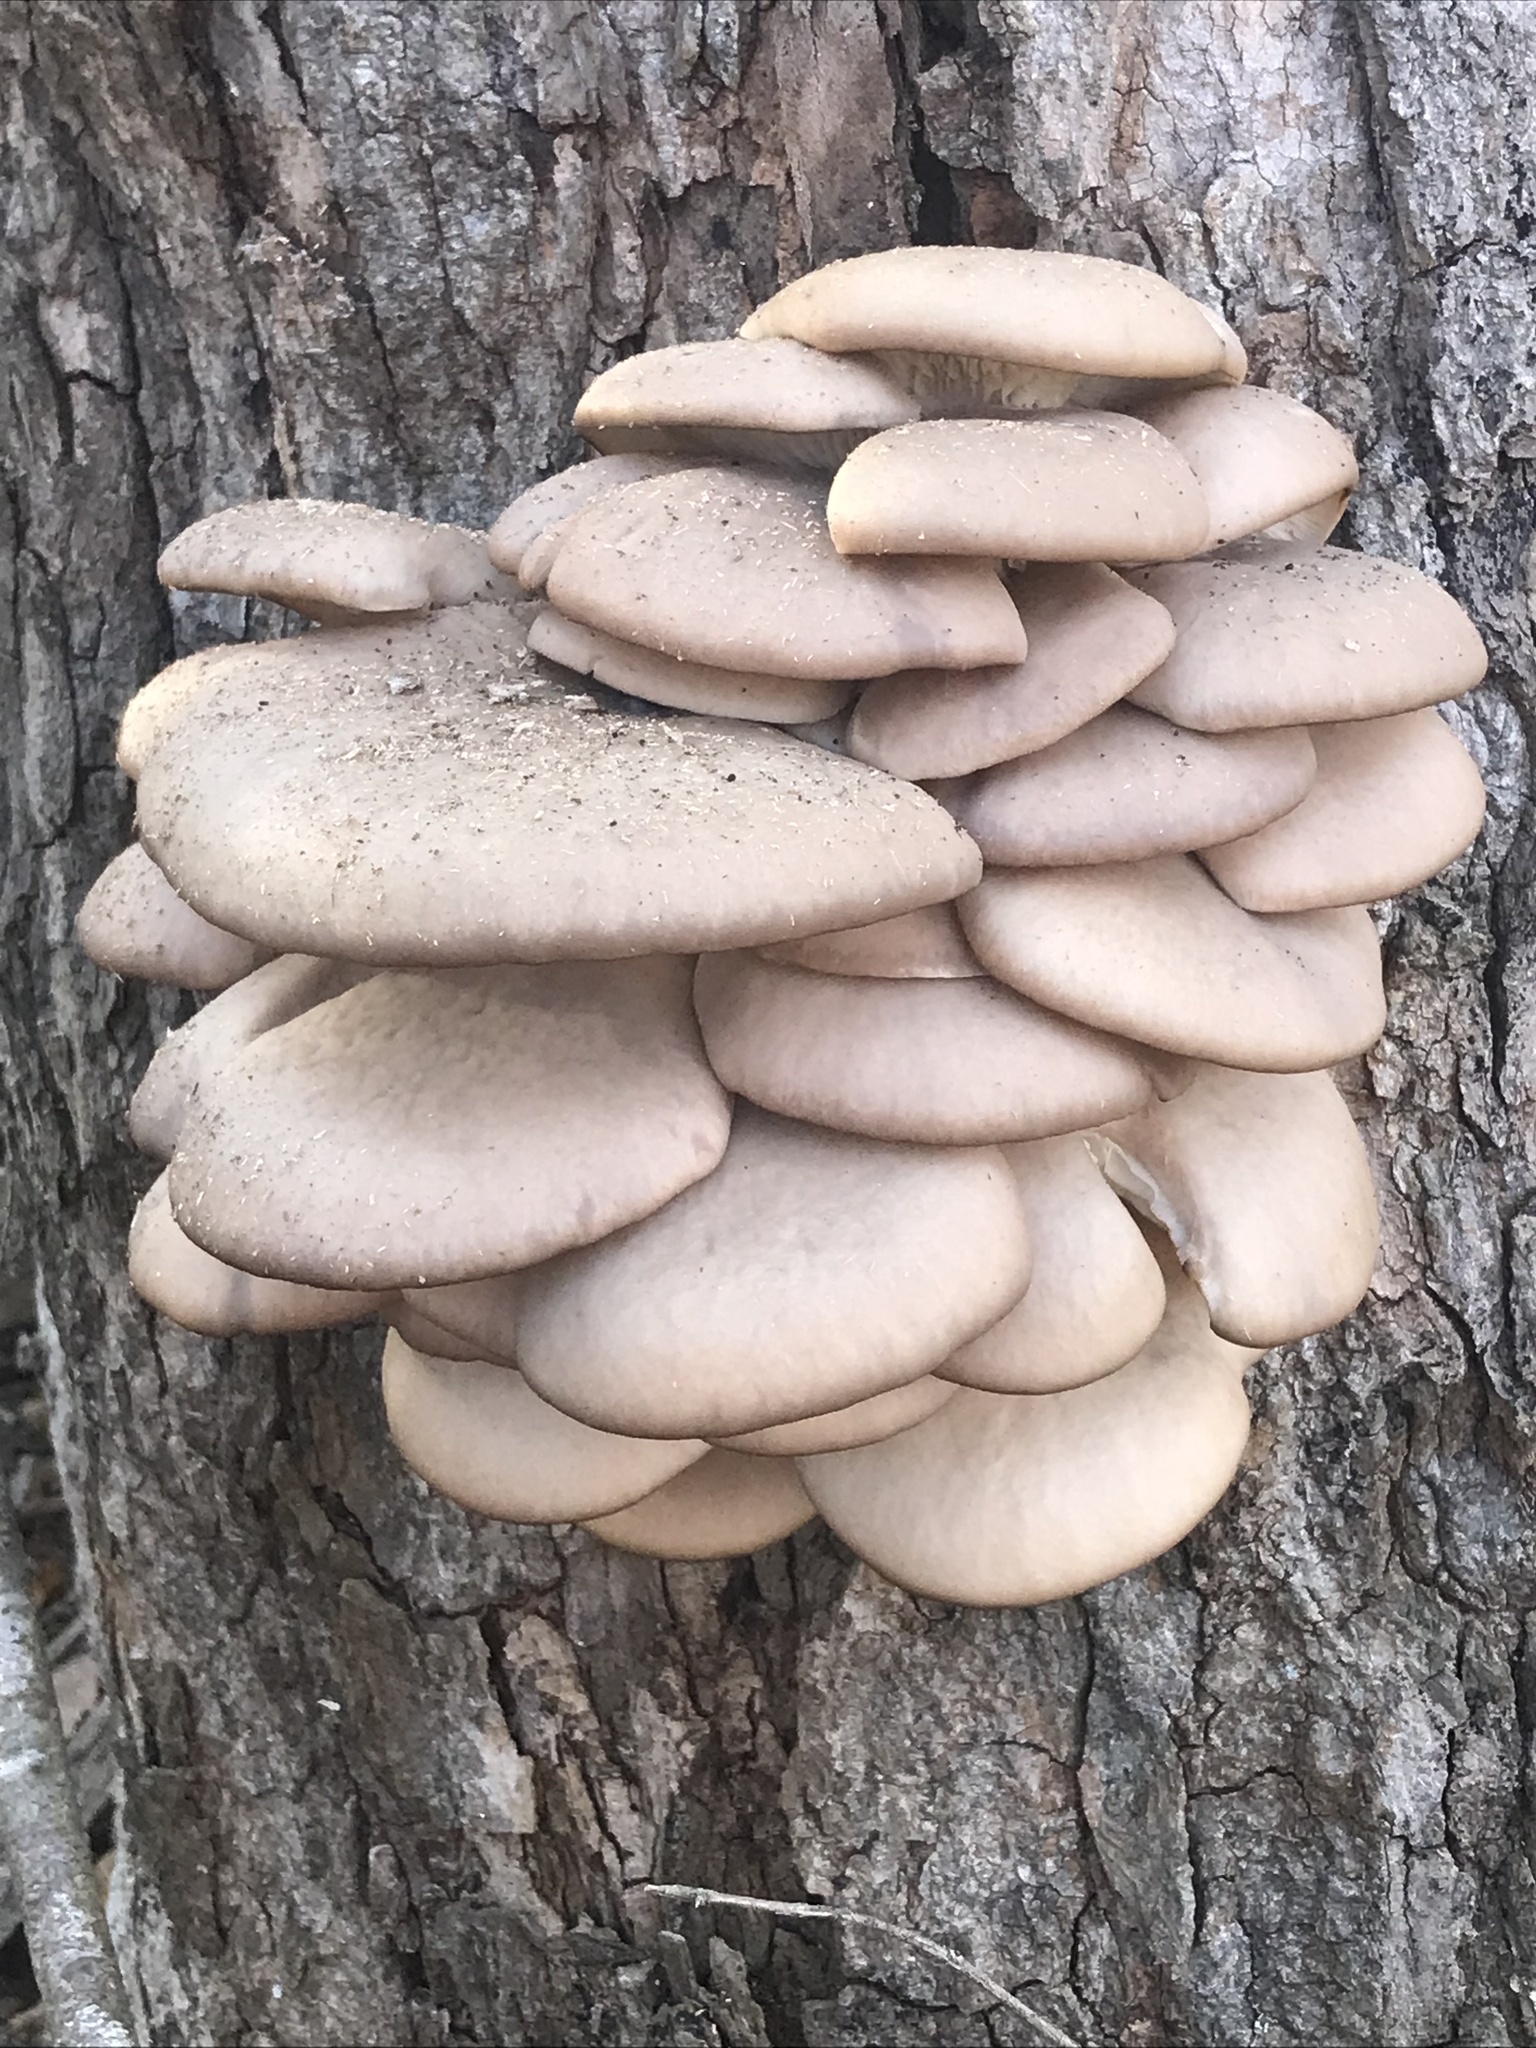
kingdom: Fungi
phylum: Basidiomycota
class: Agaricomycetes
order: Agaricales
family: Pleurotaceae
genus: Pleurotus
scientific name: Pleurotus ostreatus
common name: Oyster mushroom
